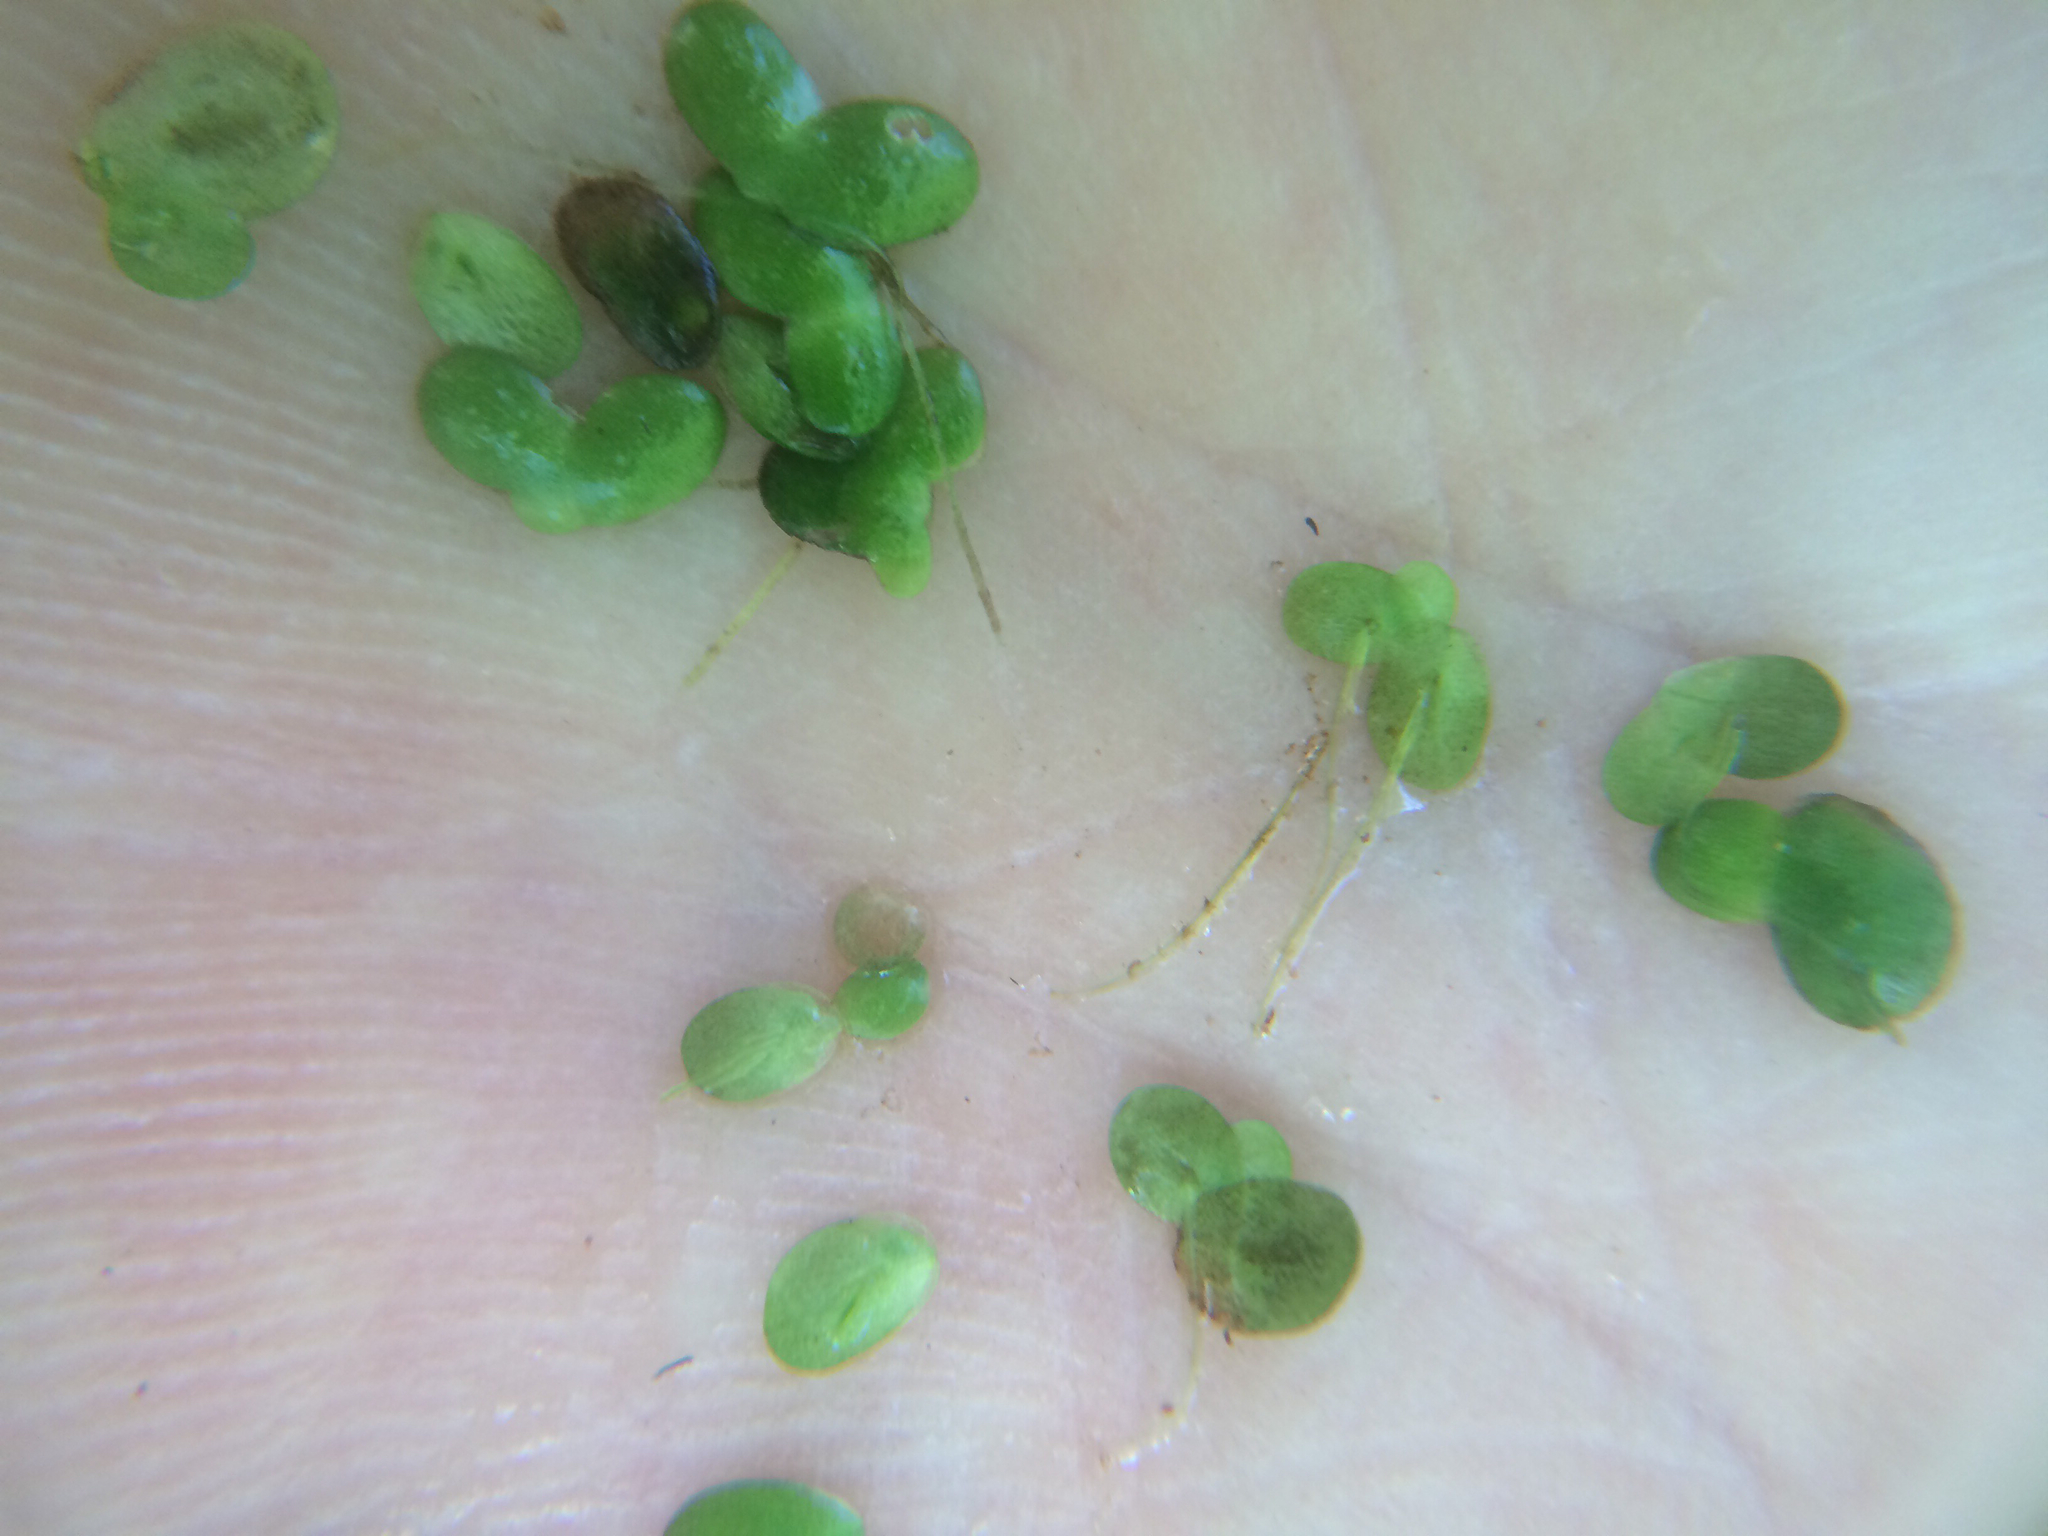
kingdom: Plantae
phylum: Tracheophyta
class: Liliopsida
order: Alismatales
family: Araceae
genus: Lemna
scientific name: Lemna minor
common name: Common duckweed
